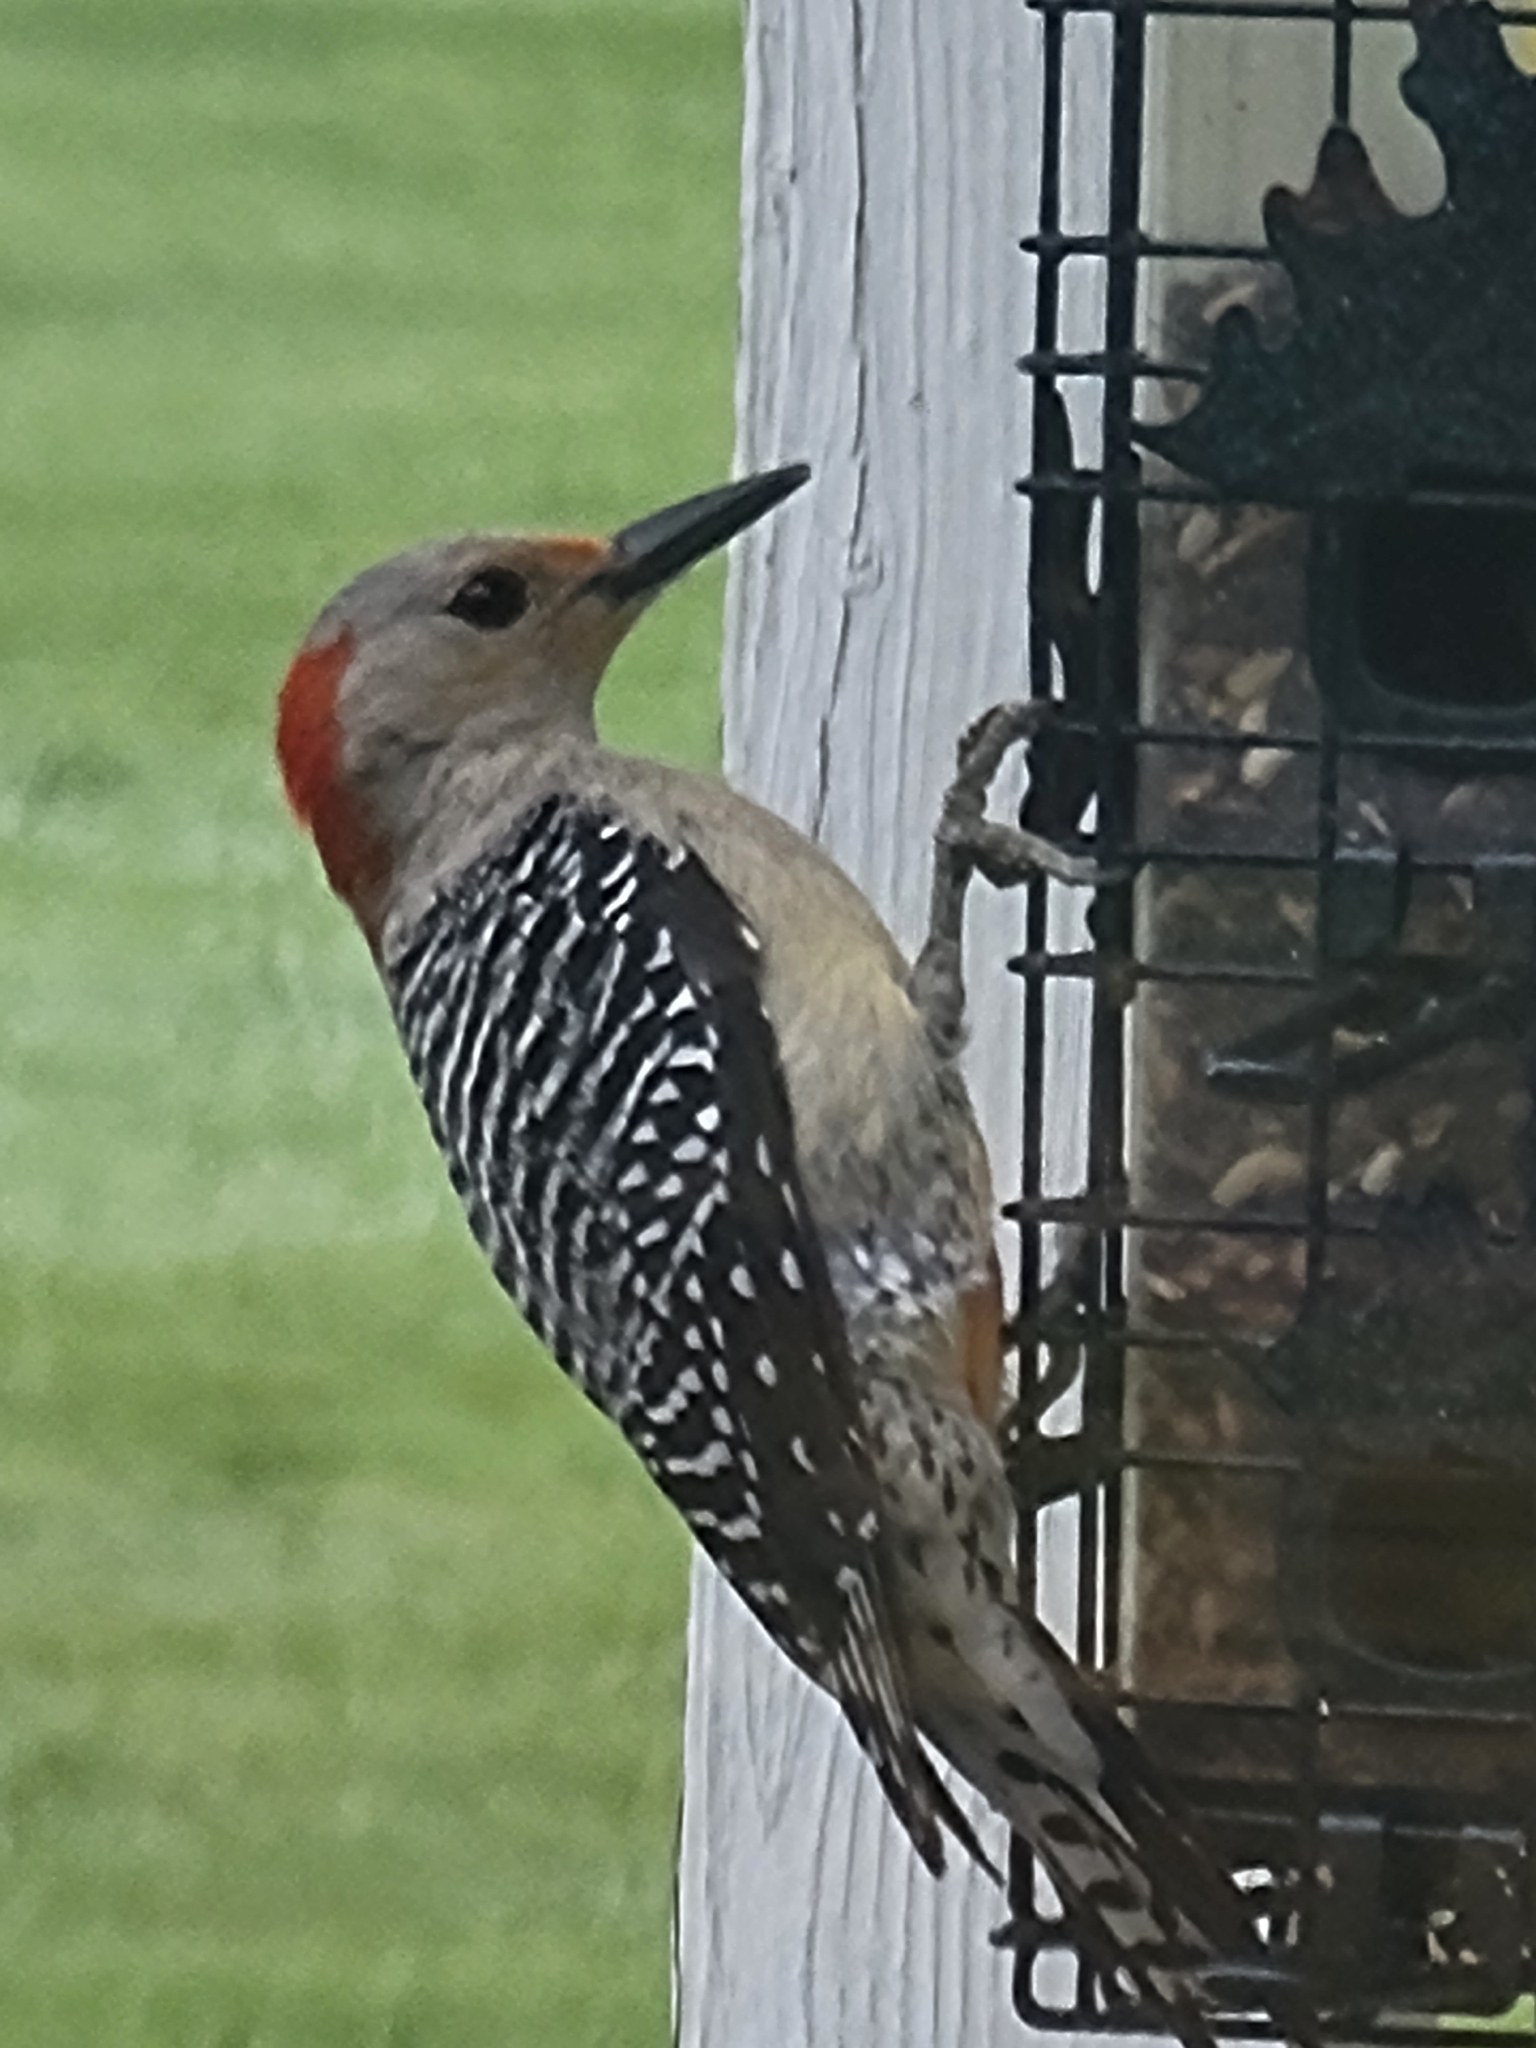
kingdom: Animalia
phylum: Chordata
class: Aves
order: Piciformes
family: Picidae
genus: Melanerpes
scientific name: Melanerpes carolinus
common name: Red-bellied woodpecker
